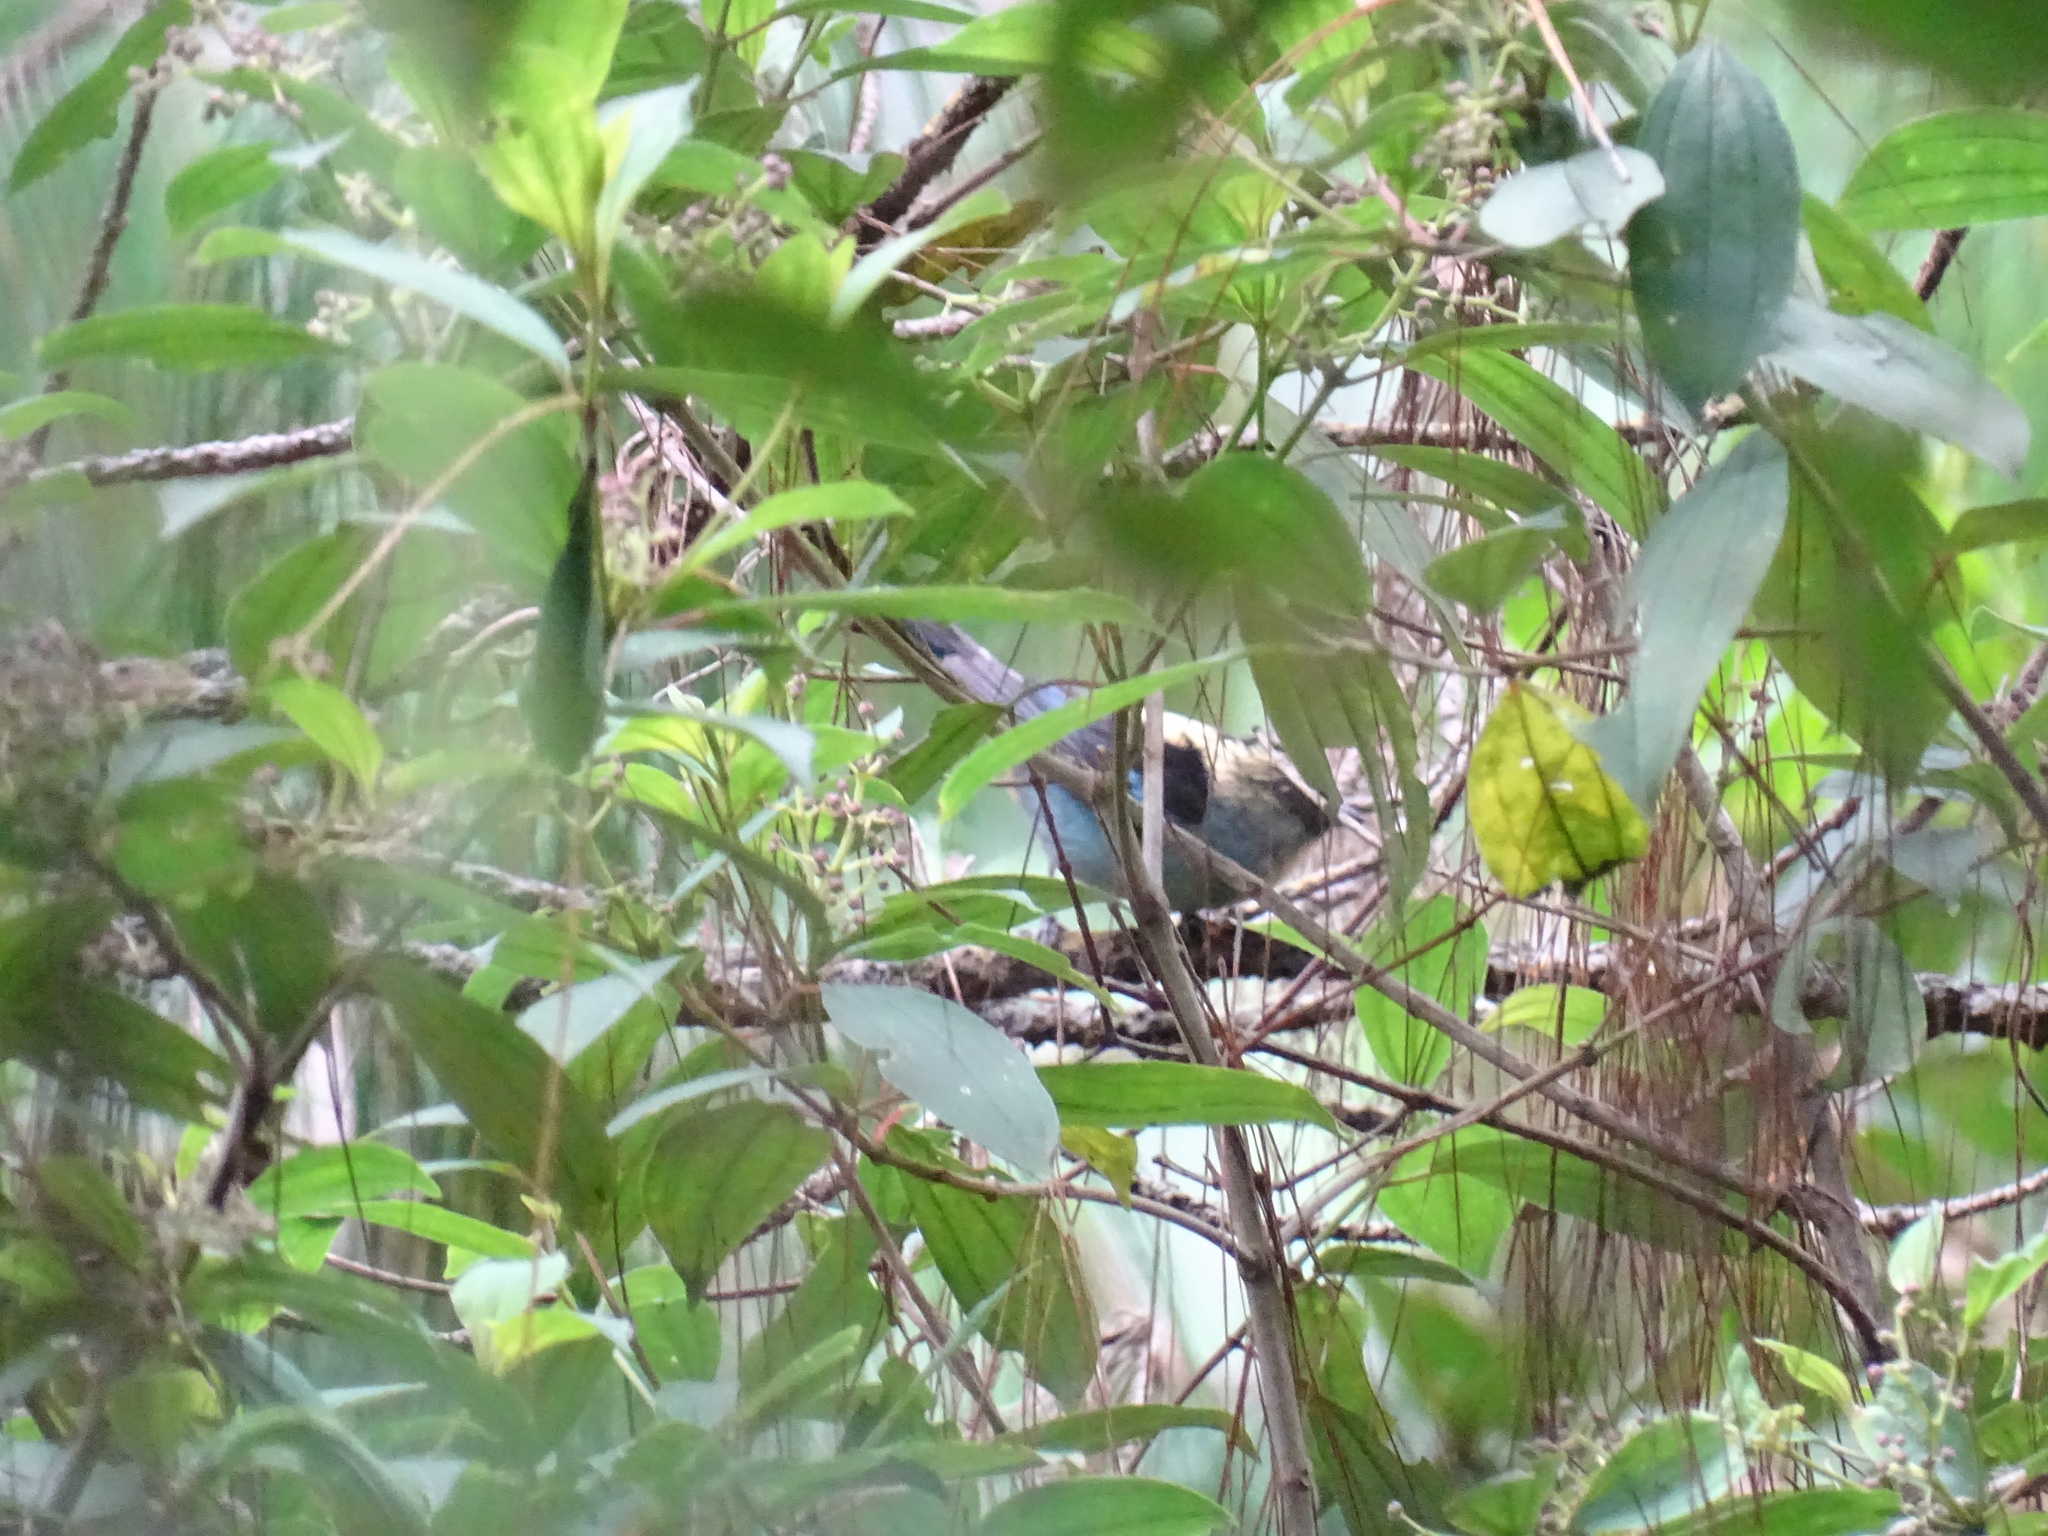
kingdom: Animalia
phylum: Chordata
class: Aves
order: Passeriformes
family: Thraupidae
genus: Tangara
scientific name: Tangara labradorides
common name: Metallic-green tanager
